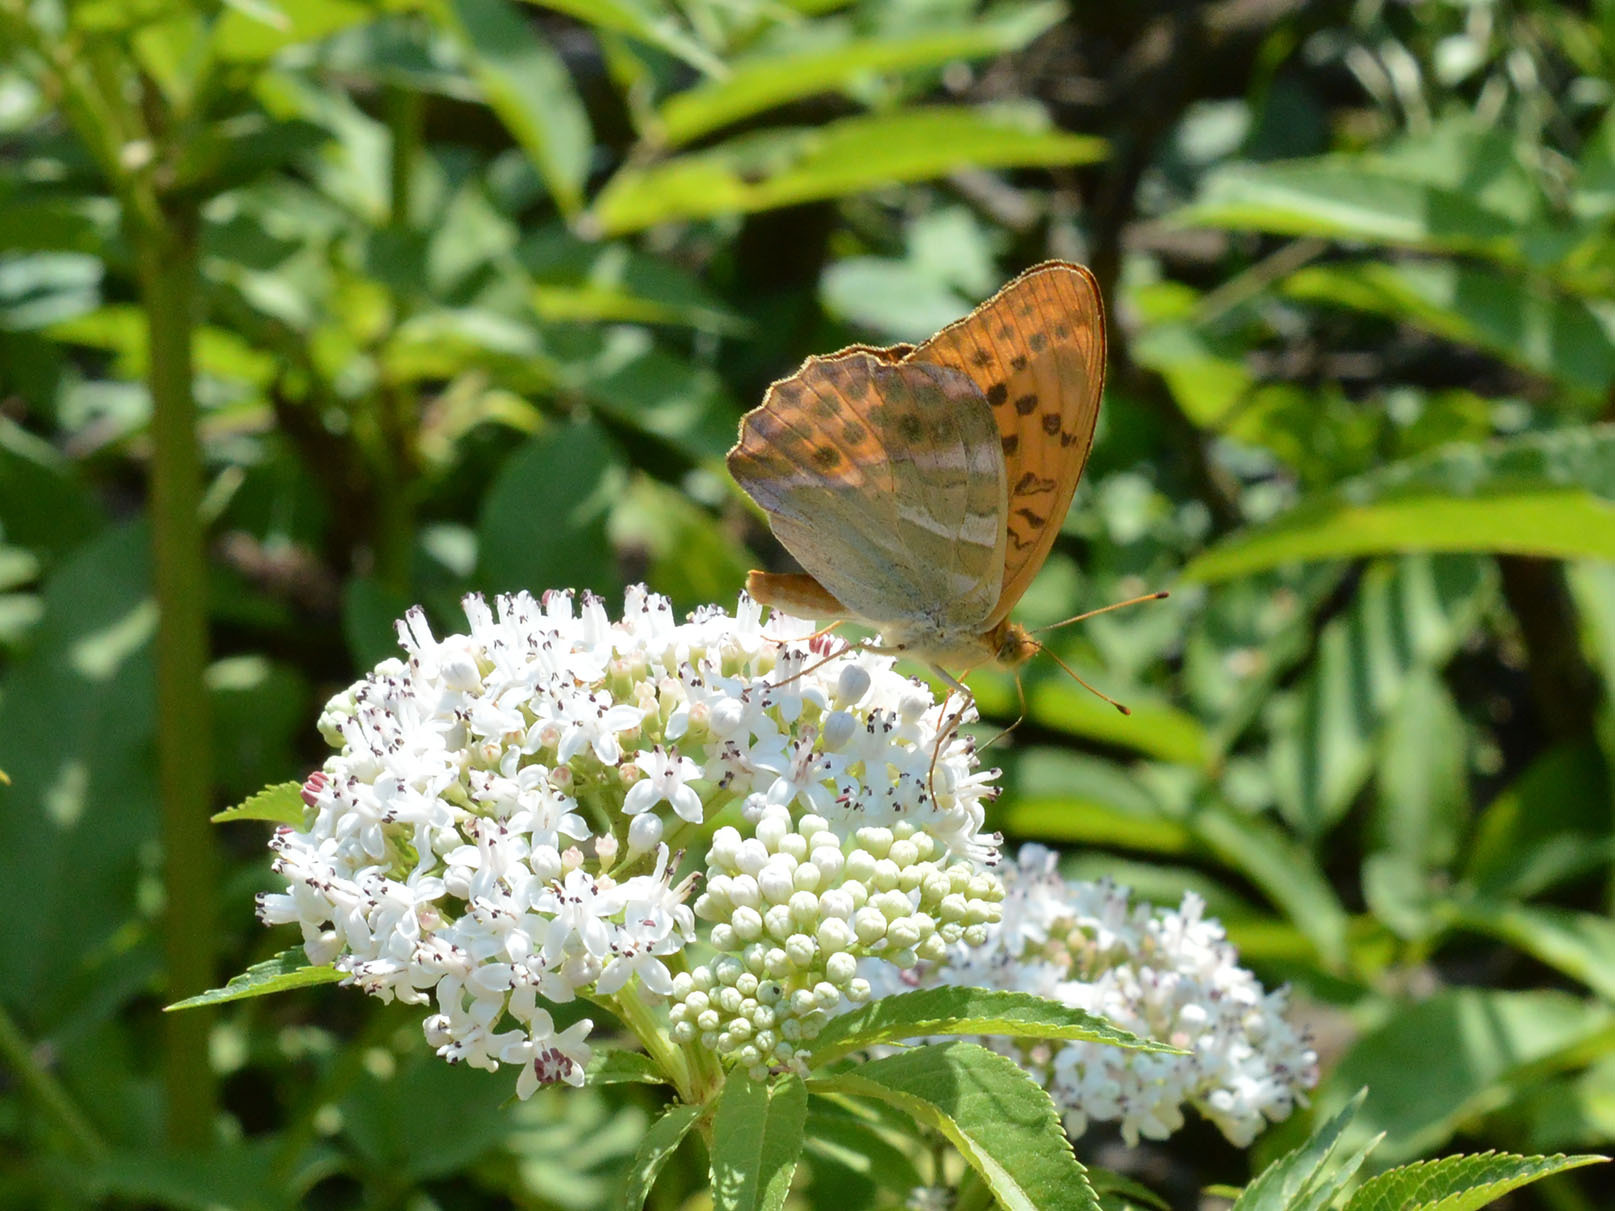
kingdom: Animalia
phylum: Arthropoda
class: Insecta
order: Lepidoptera
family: Nymphalidae
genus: Argynnis
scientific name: Argynnis paphia
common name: Silver-washed fritillary
